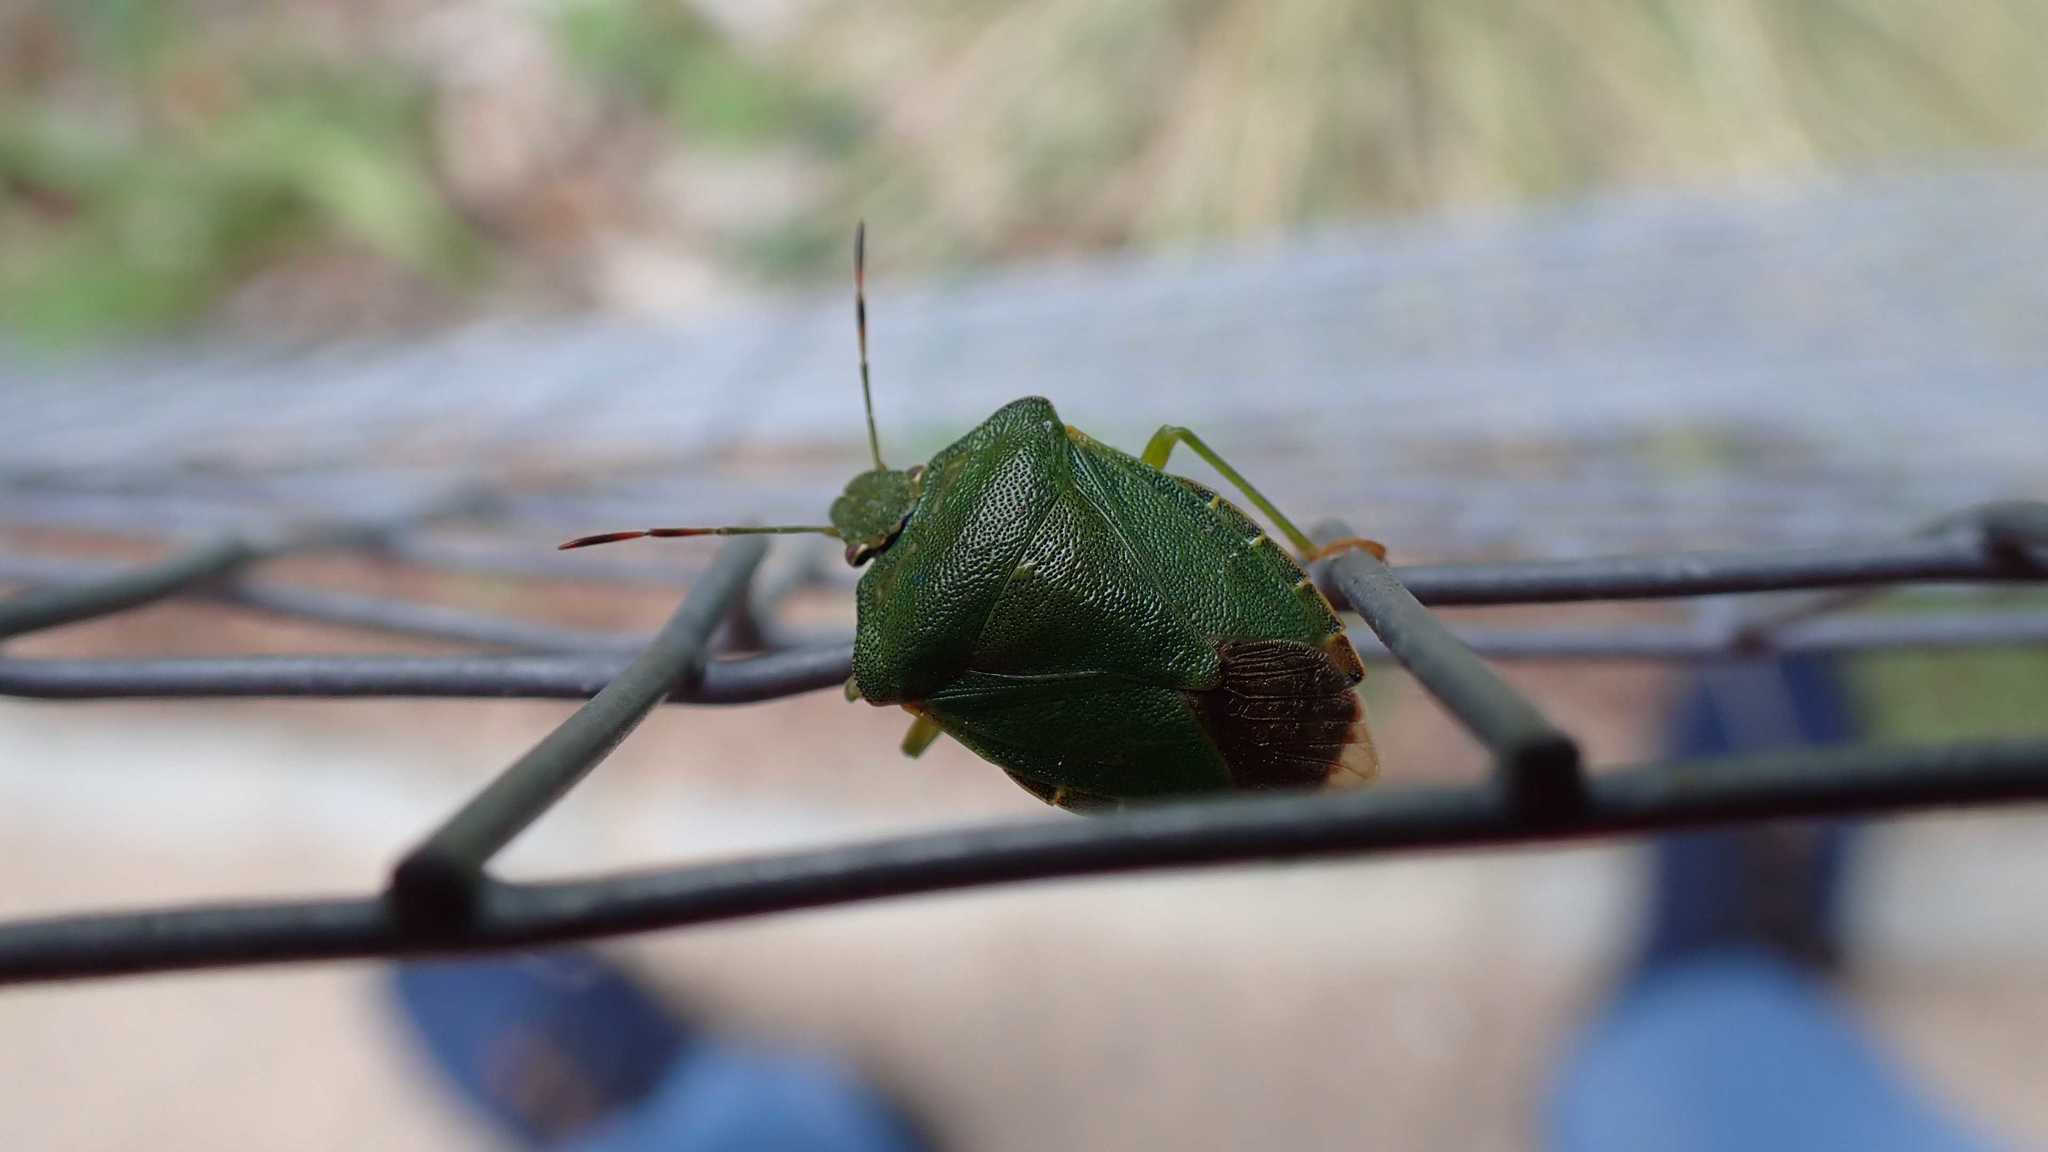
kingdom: Animalia
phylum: Arthropoda
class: Insecta
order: Hemiptera
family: Pentatomidae
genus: Palomena
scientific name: Palomena prasina
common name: Green shieldbug
